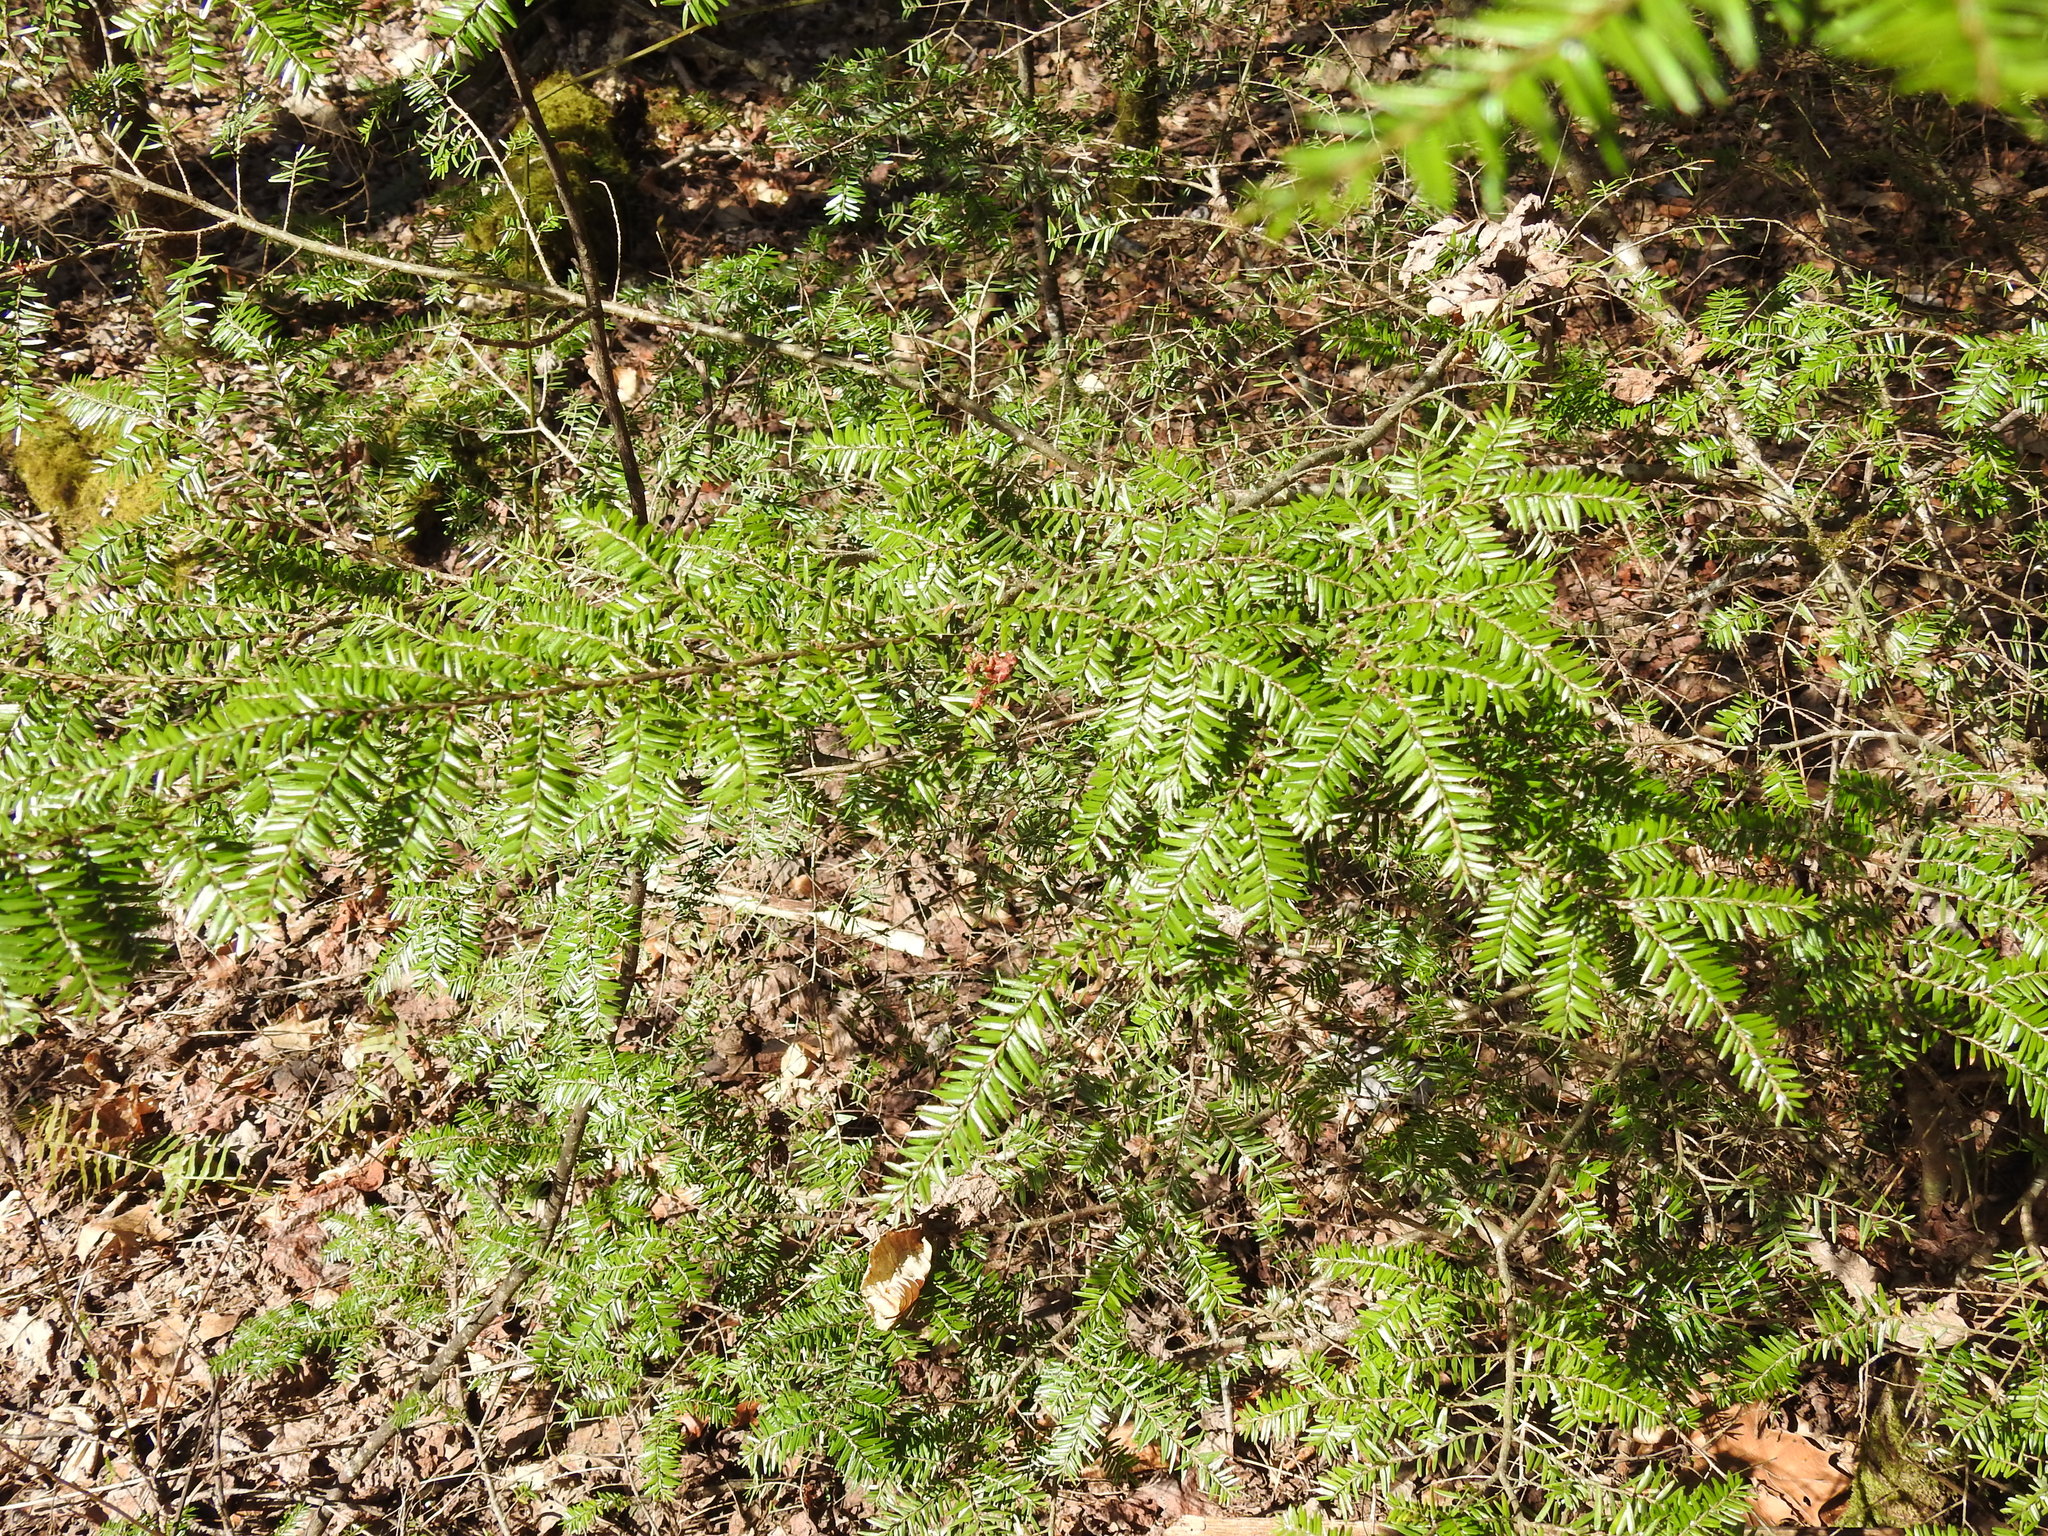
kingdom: Plantae
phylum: Tracheophyta
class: Pinopsida
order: Pinales
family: Pinaceae
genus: Tsuga
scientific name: Tsuga canadensis
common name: Eastern hemlock
